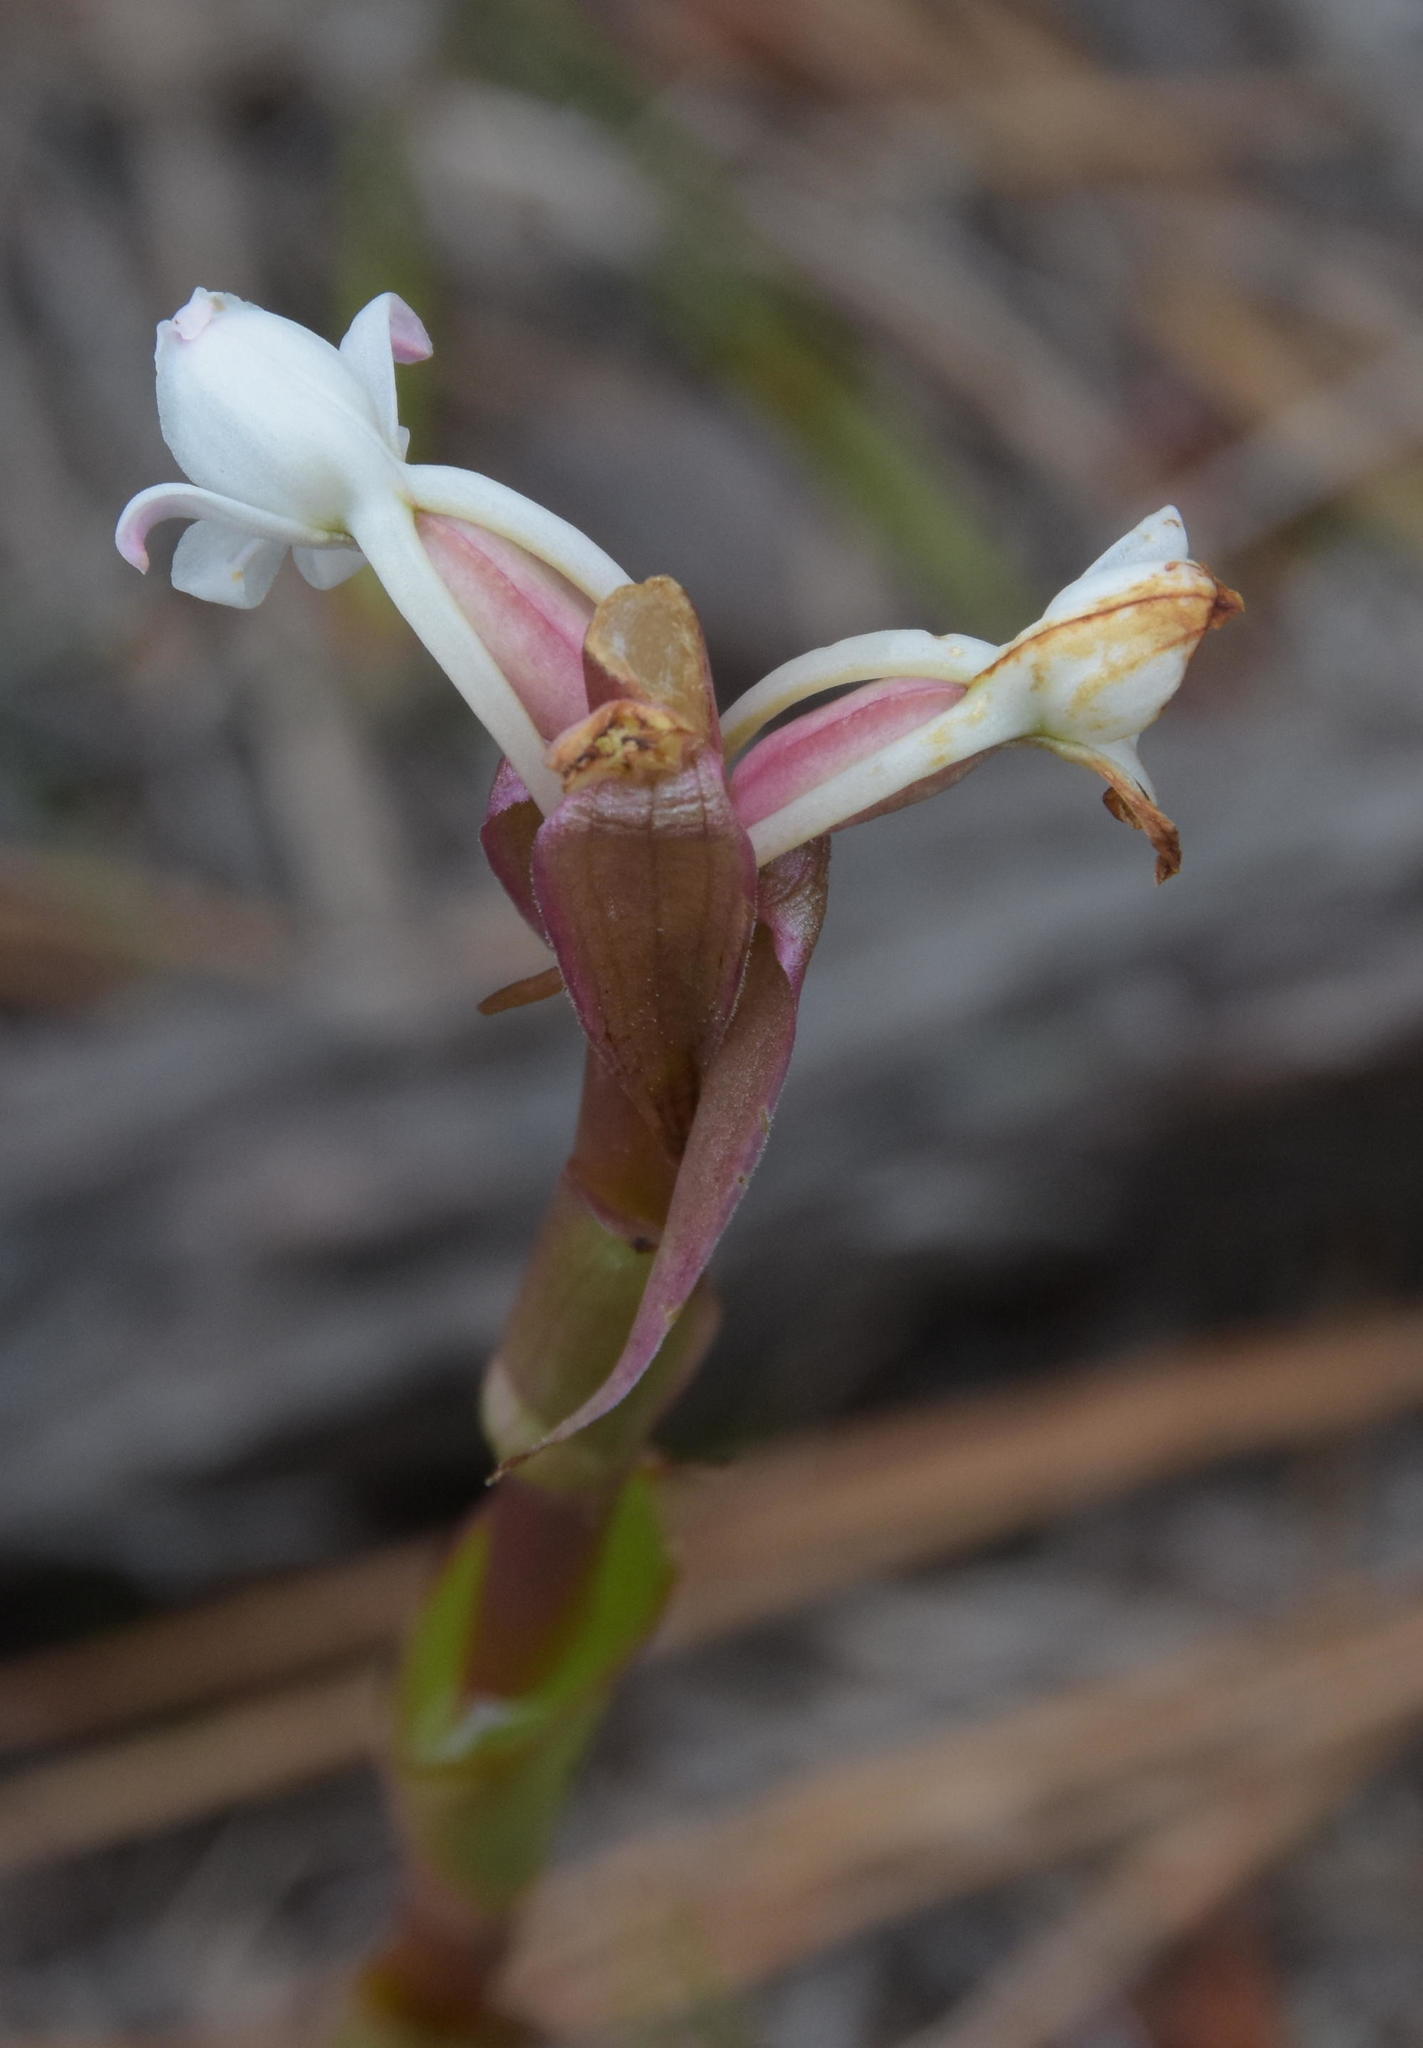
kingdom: Plantae
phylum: Tracheophyta
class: Liliopsida
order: Asparagales
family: Orchidaceae
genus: Satyrium
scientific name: Satyrium acuminatum
